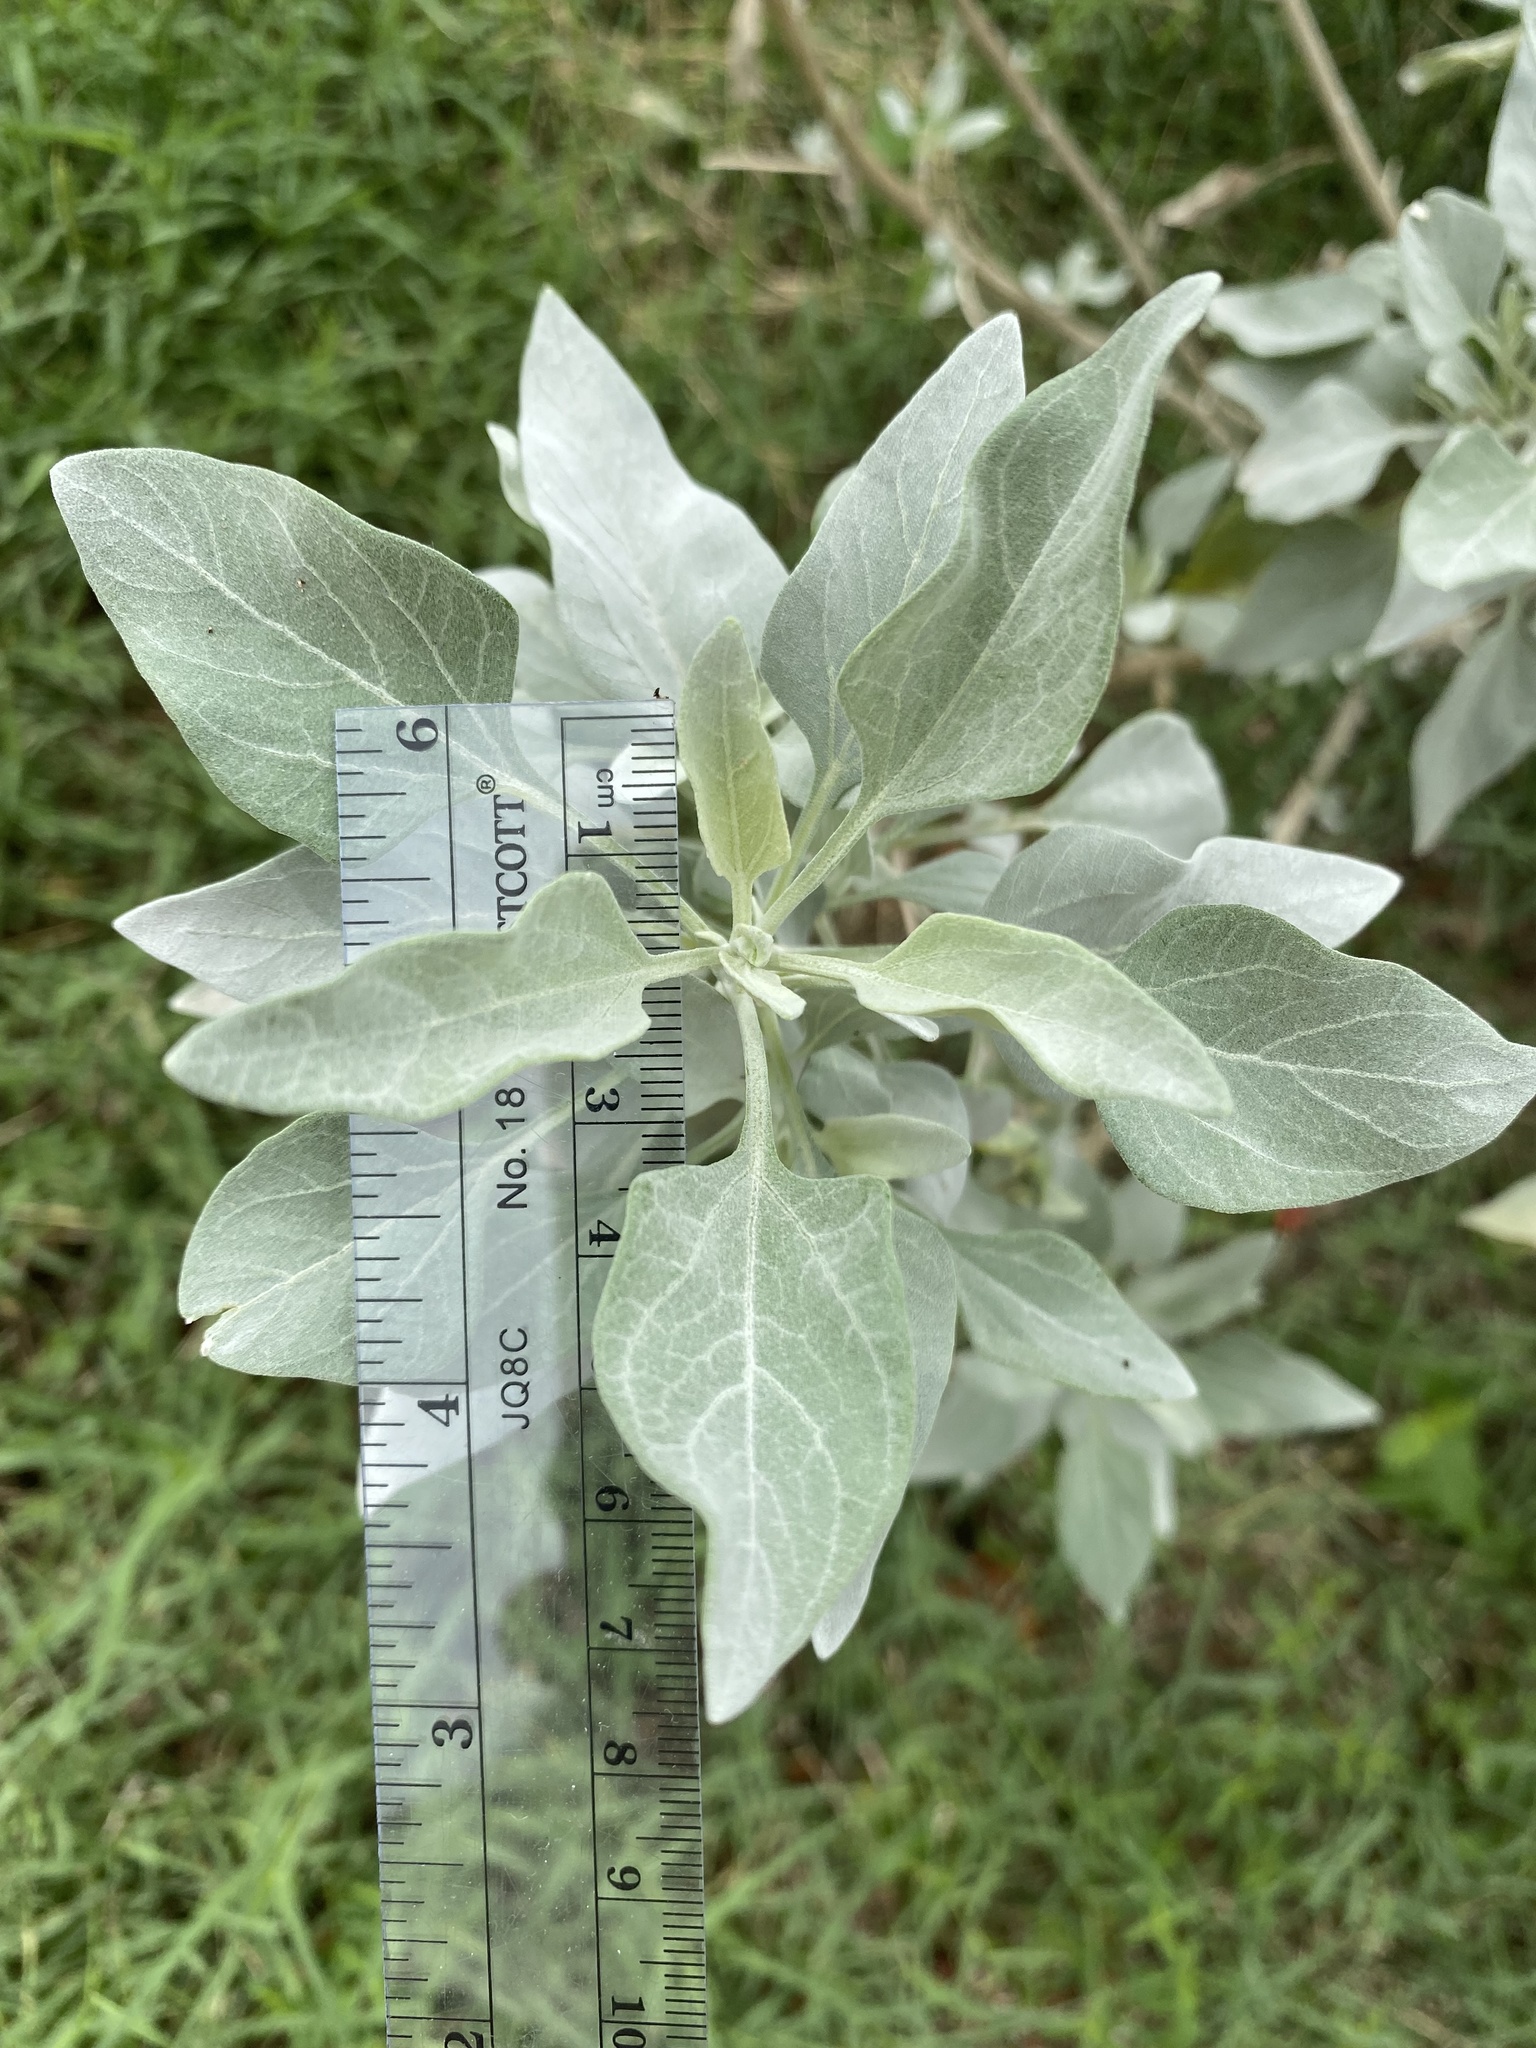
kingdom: Plantae
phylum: Tracheophyta
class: Magnoliopsida
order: Asterales
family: Asteraceae
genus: Encelia
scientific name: Encelia farinosa
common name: Brittlebush
